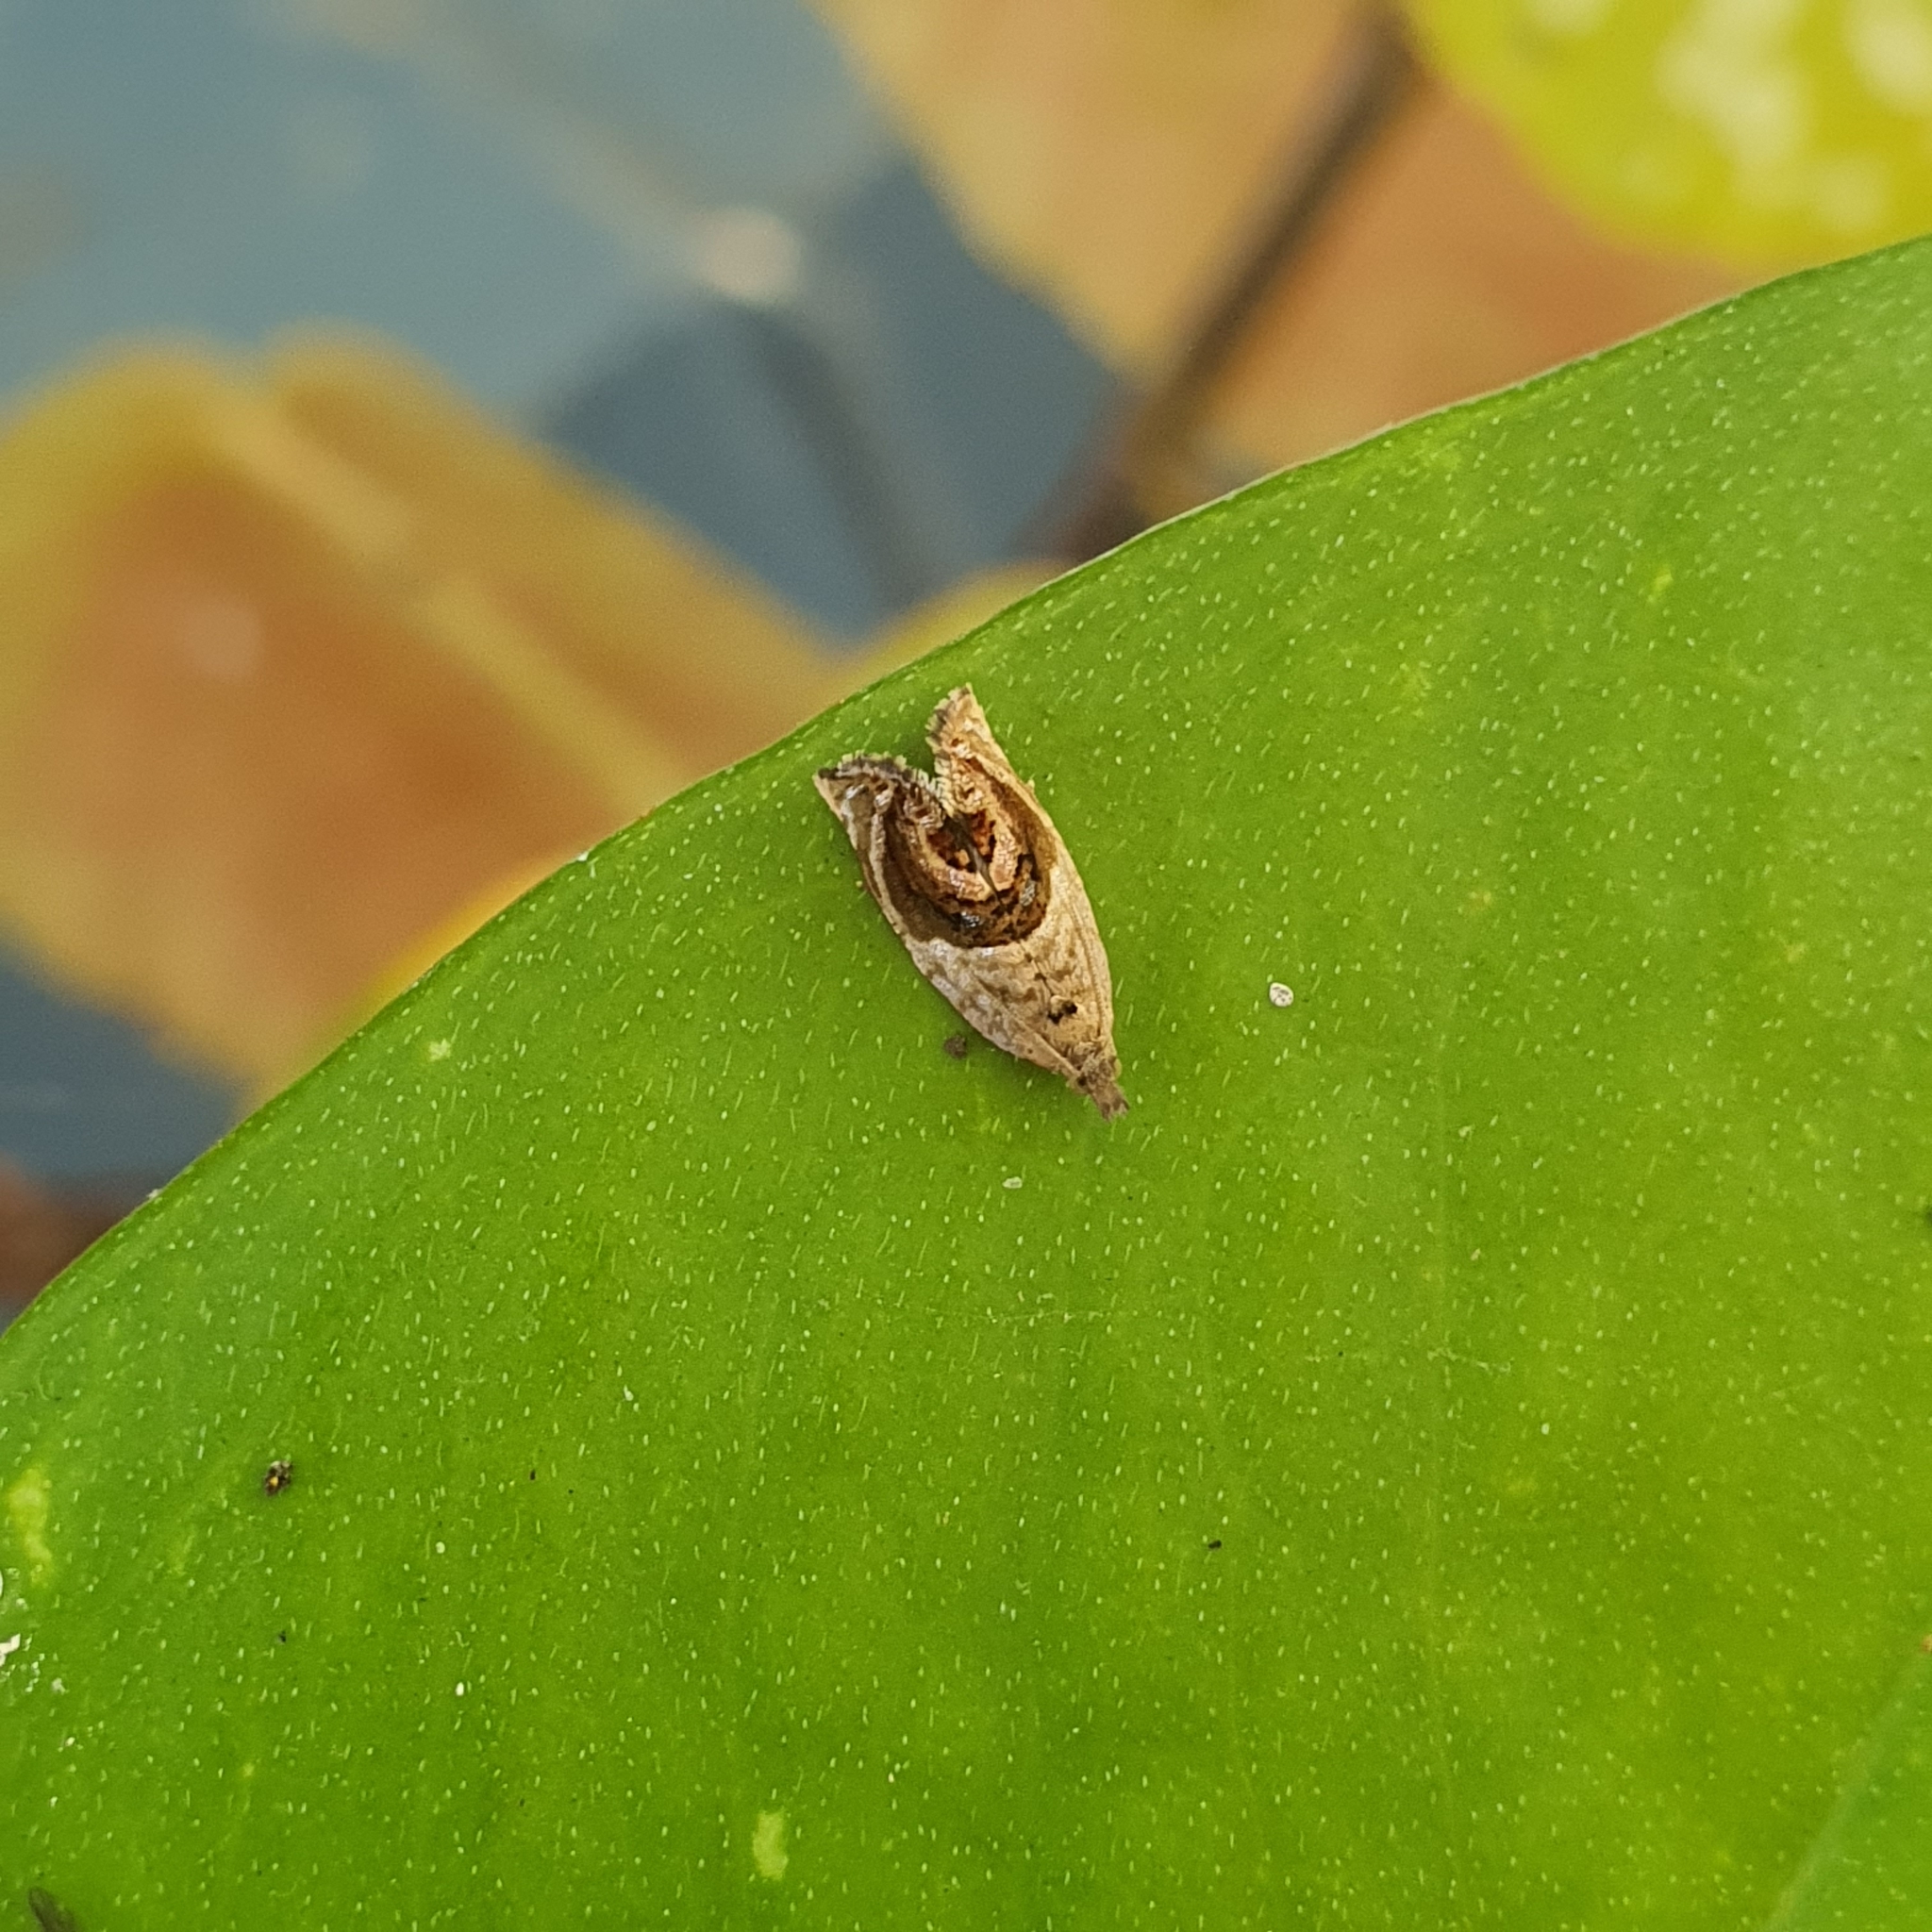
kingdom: Animalia
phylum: Arthropoda
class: Insecta
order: Lepidoptera
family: Tortricidae
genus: Acroceuthes
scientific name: Acroceuthes metaxanthana
